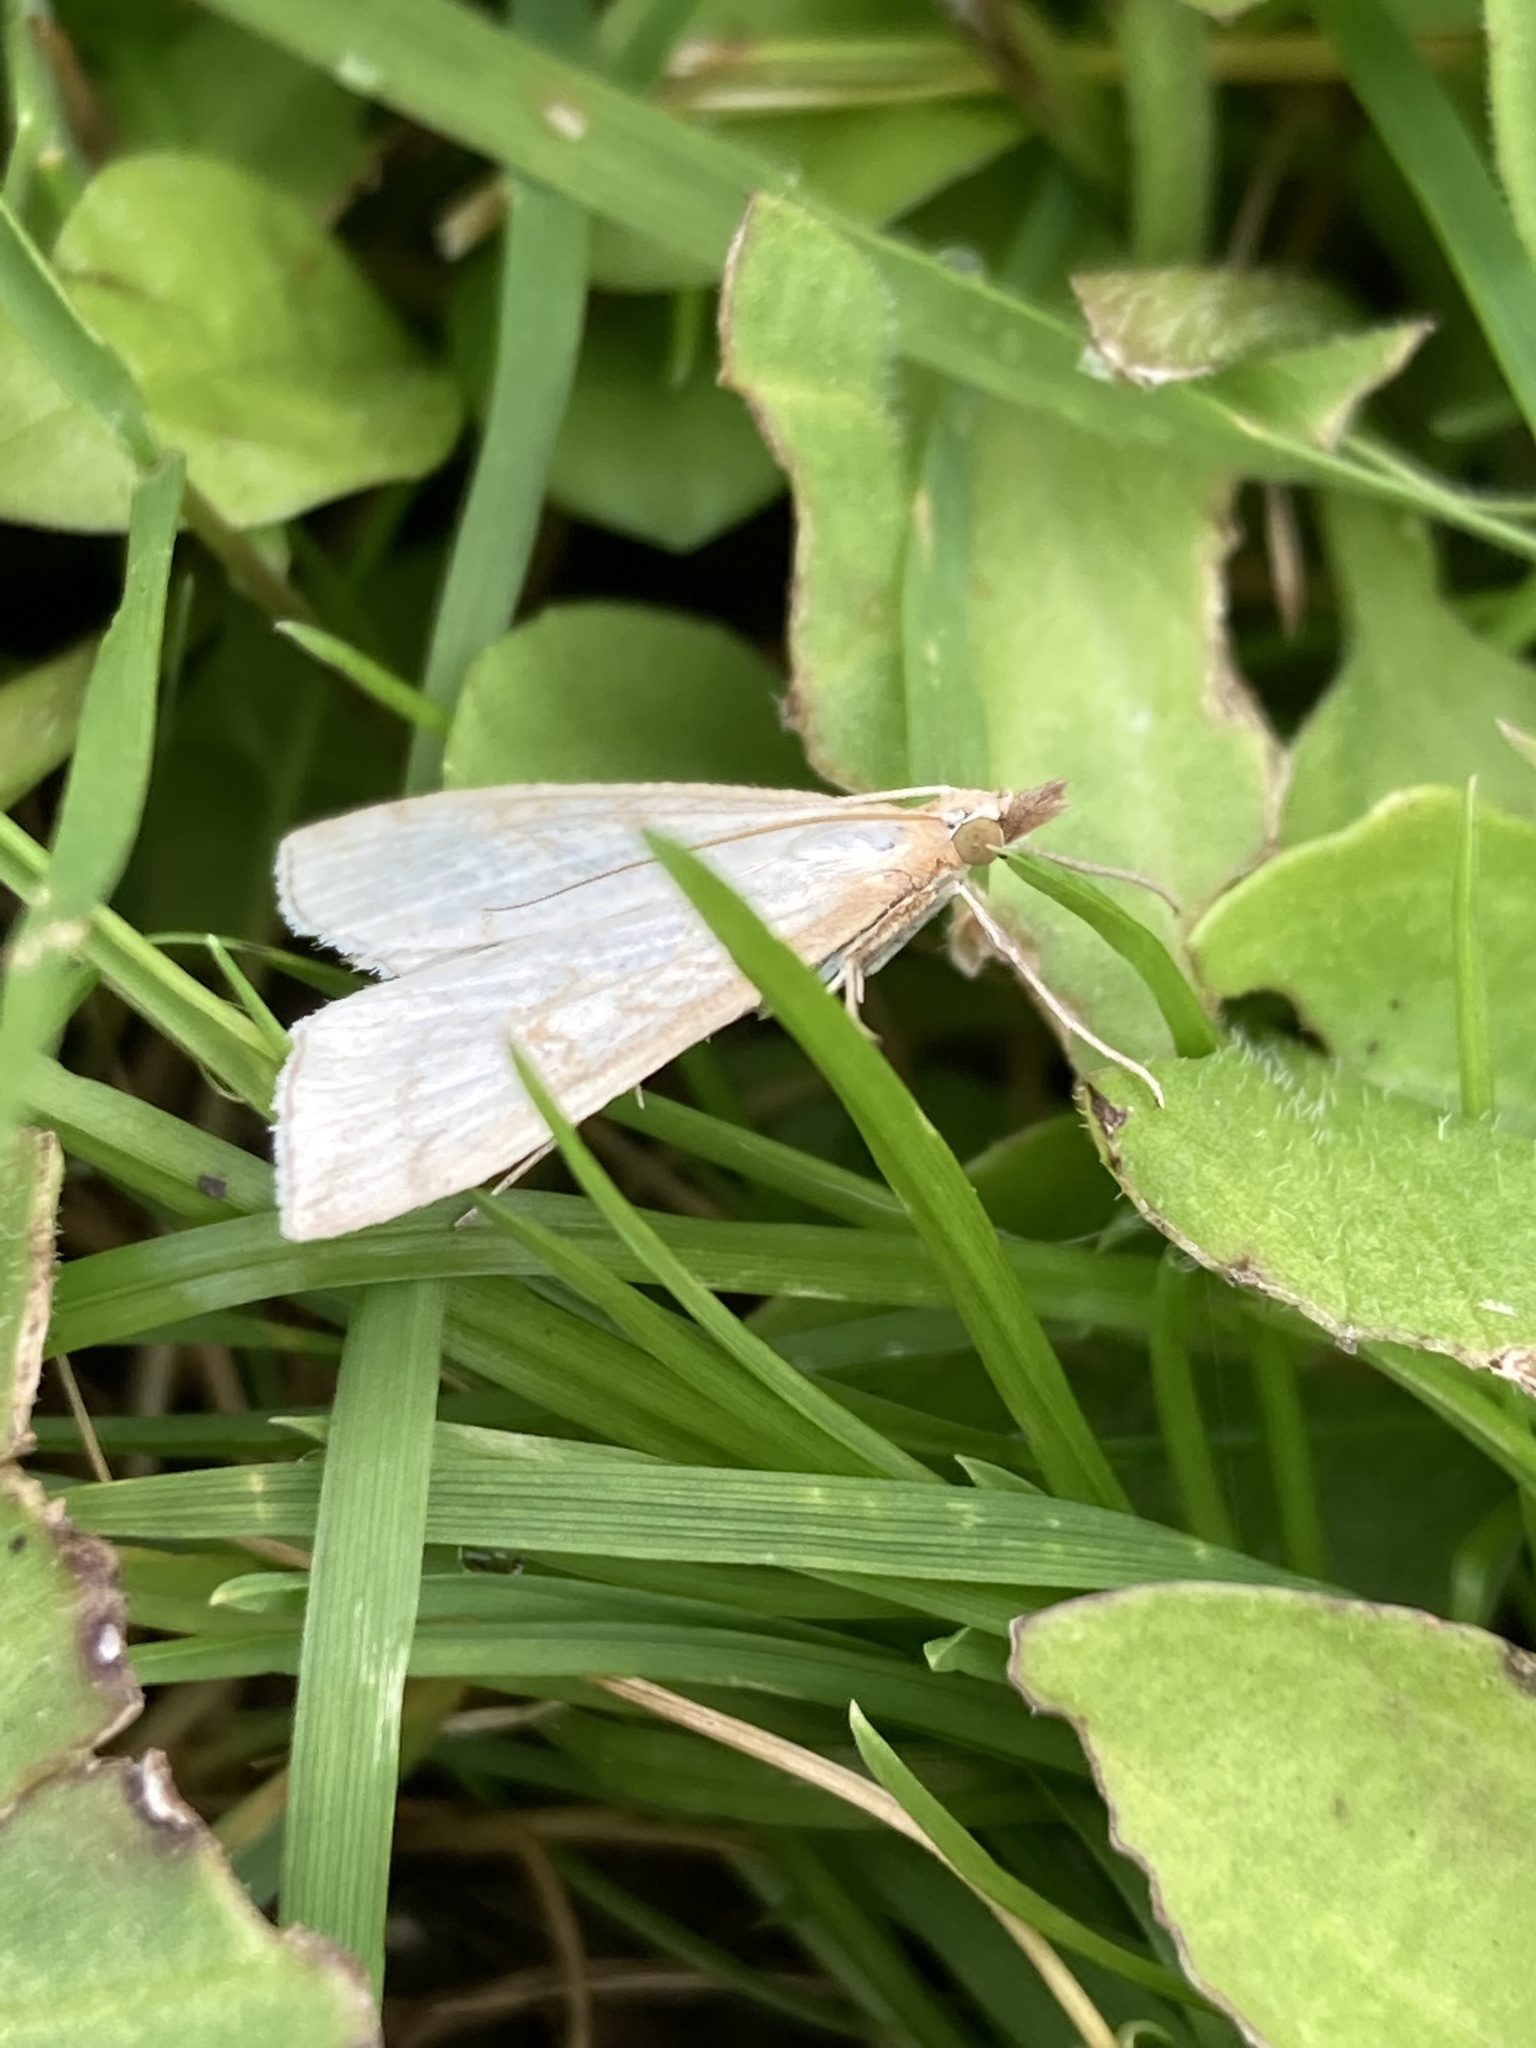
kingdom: Animalia
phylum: Arthropoda
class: Insecta
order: Lepidoptera
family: Crambidae
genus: Udea
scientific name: Udea lutealis
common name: Pale straw pearl
